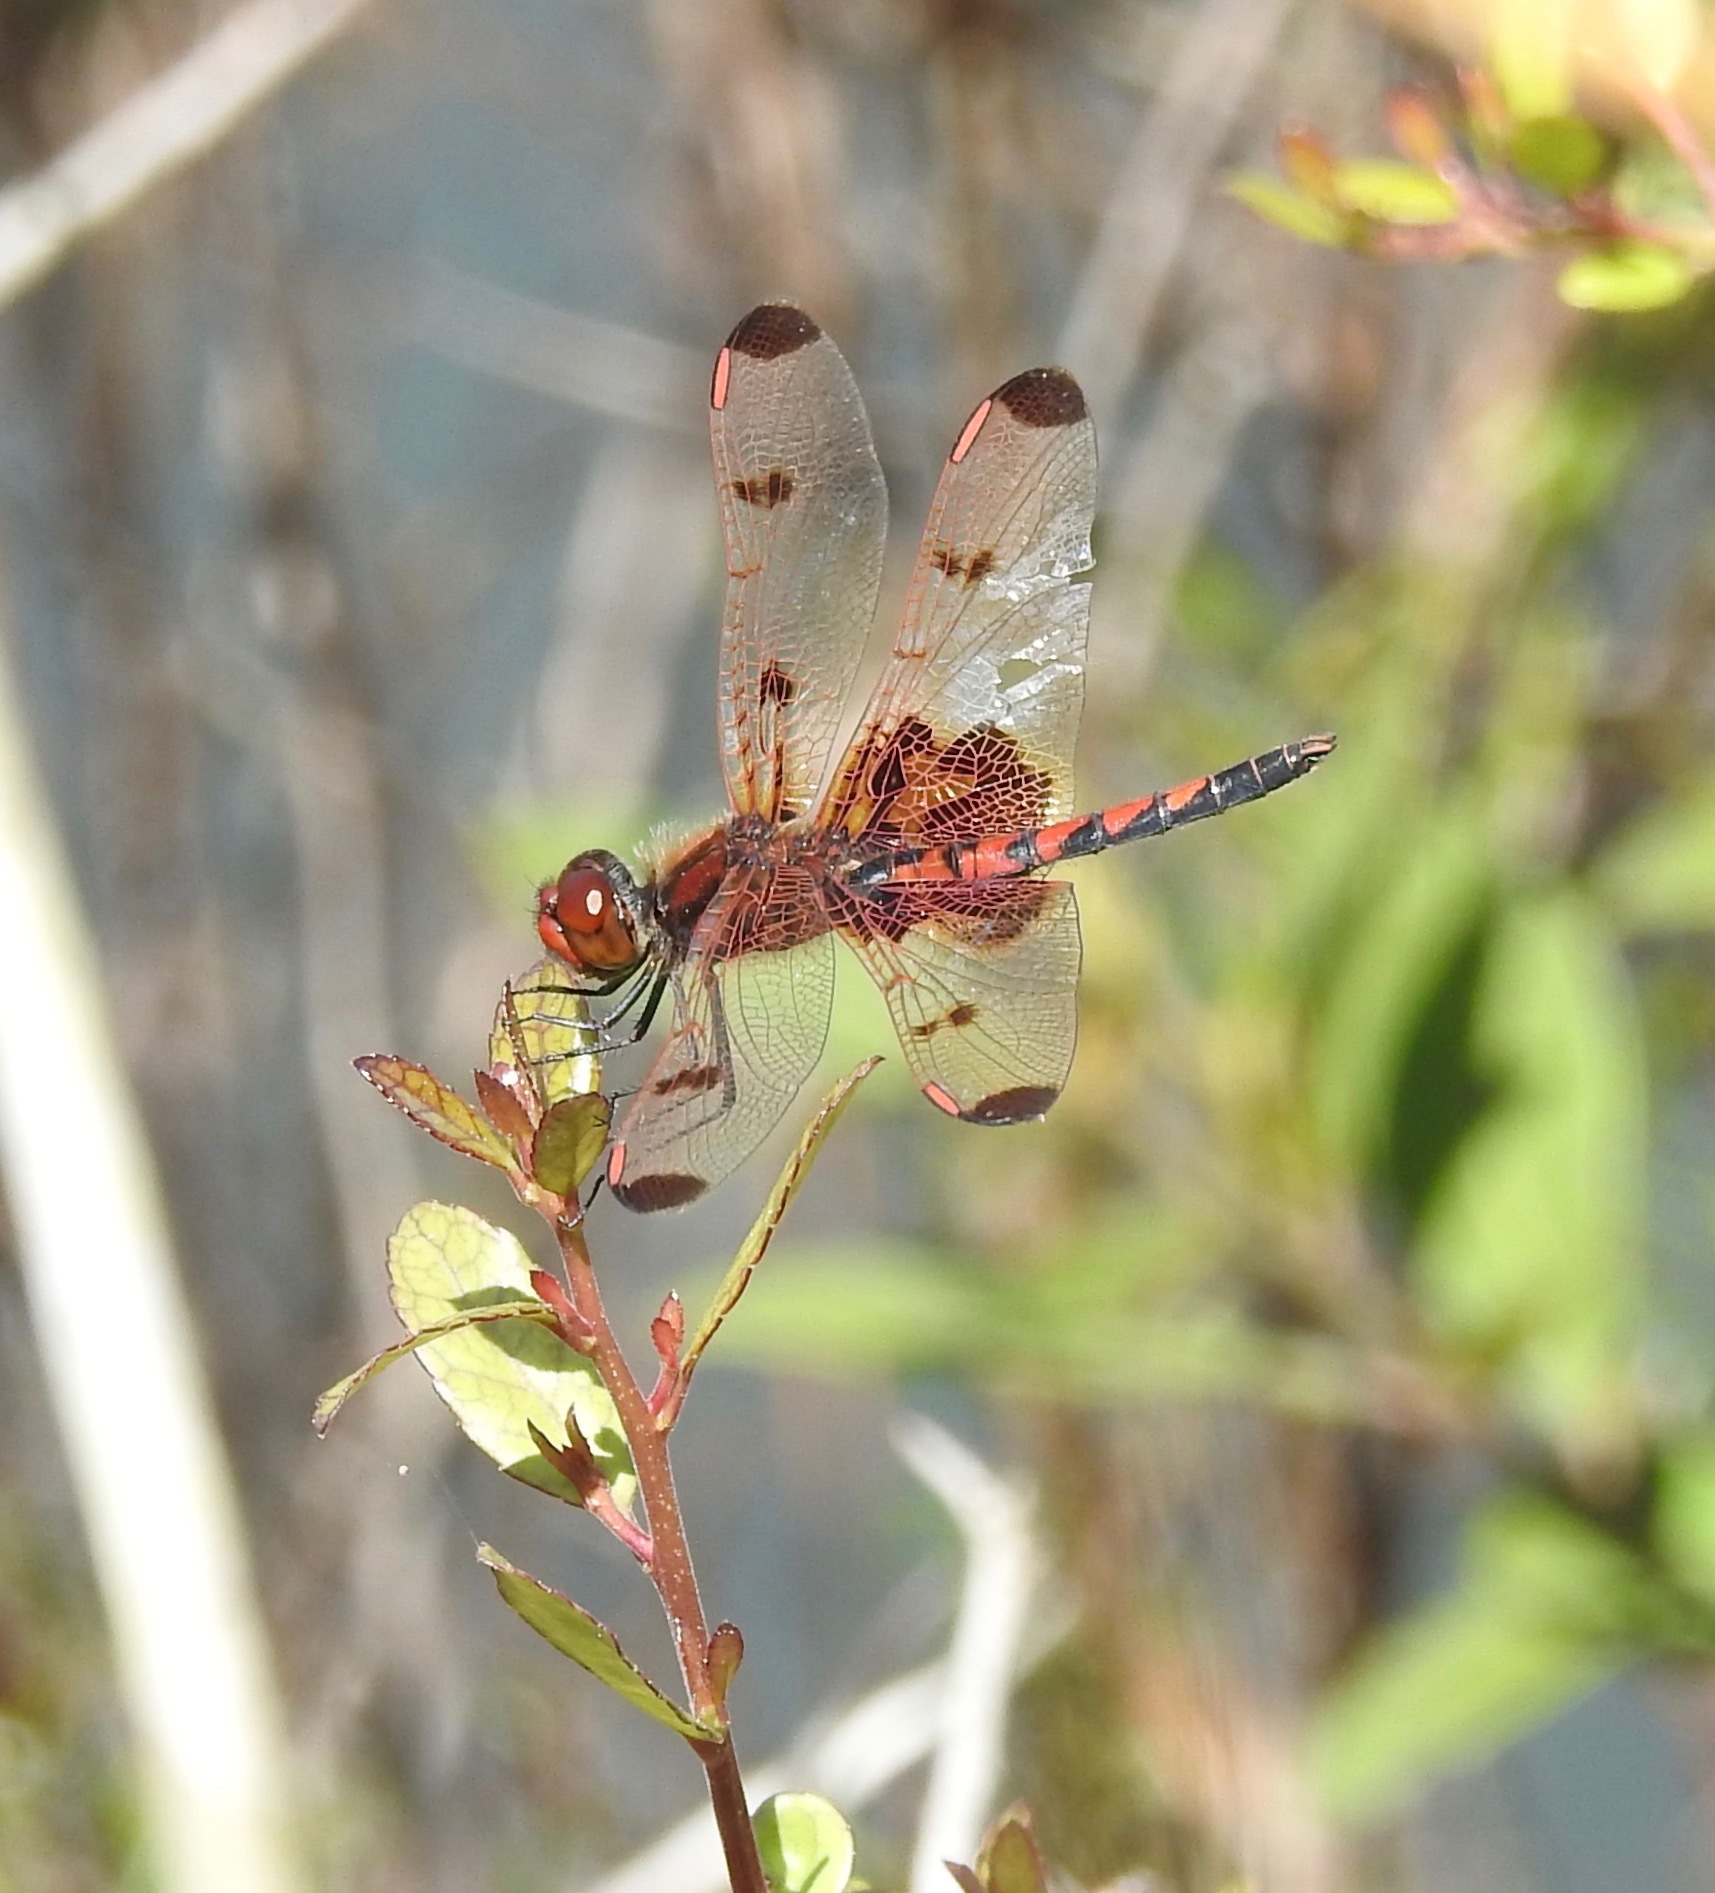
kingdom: Animalia
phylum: Arthropoda
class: Insecta
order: Odonata
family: Libellulidae
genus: Celithemis
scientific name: Celithemis elisa
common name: Calico pennant
